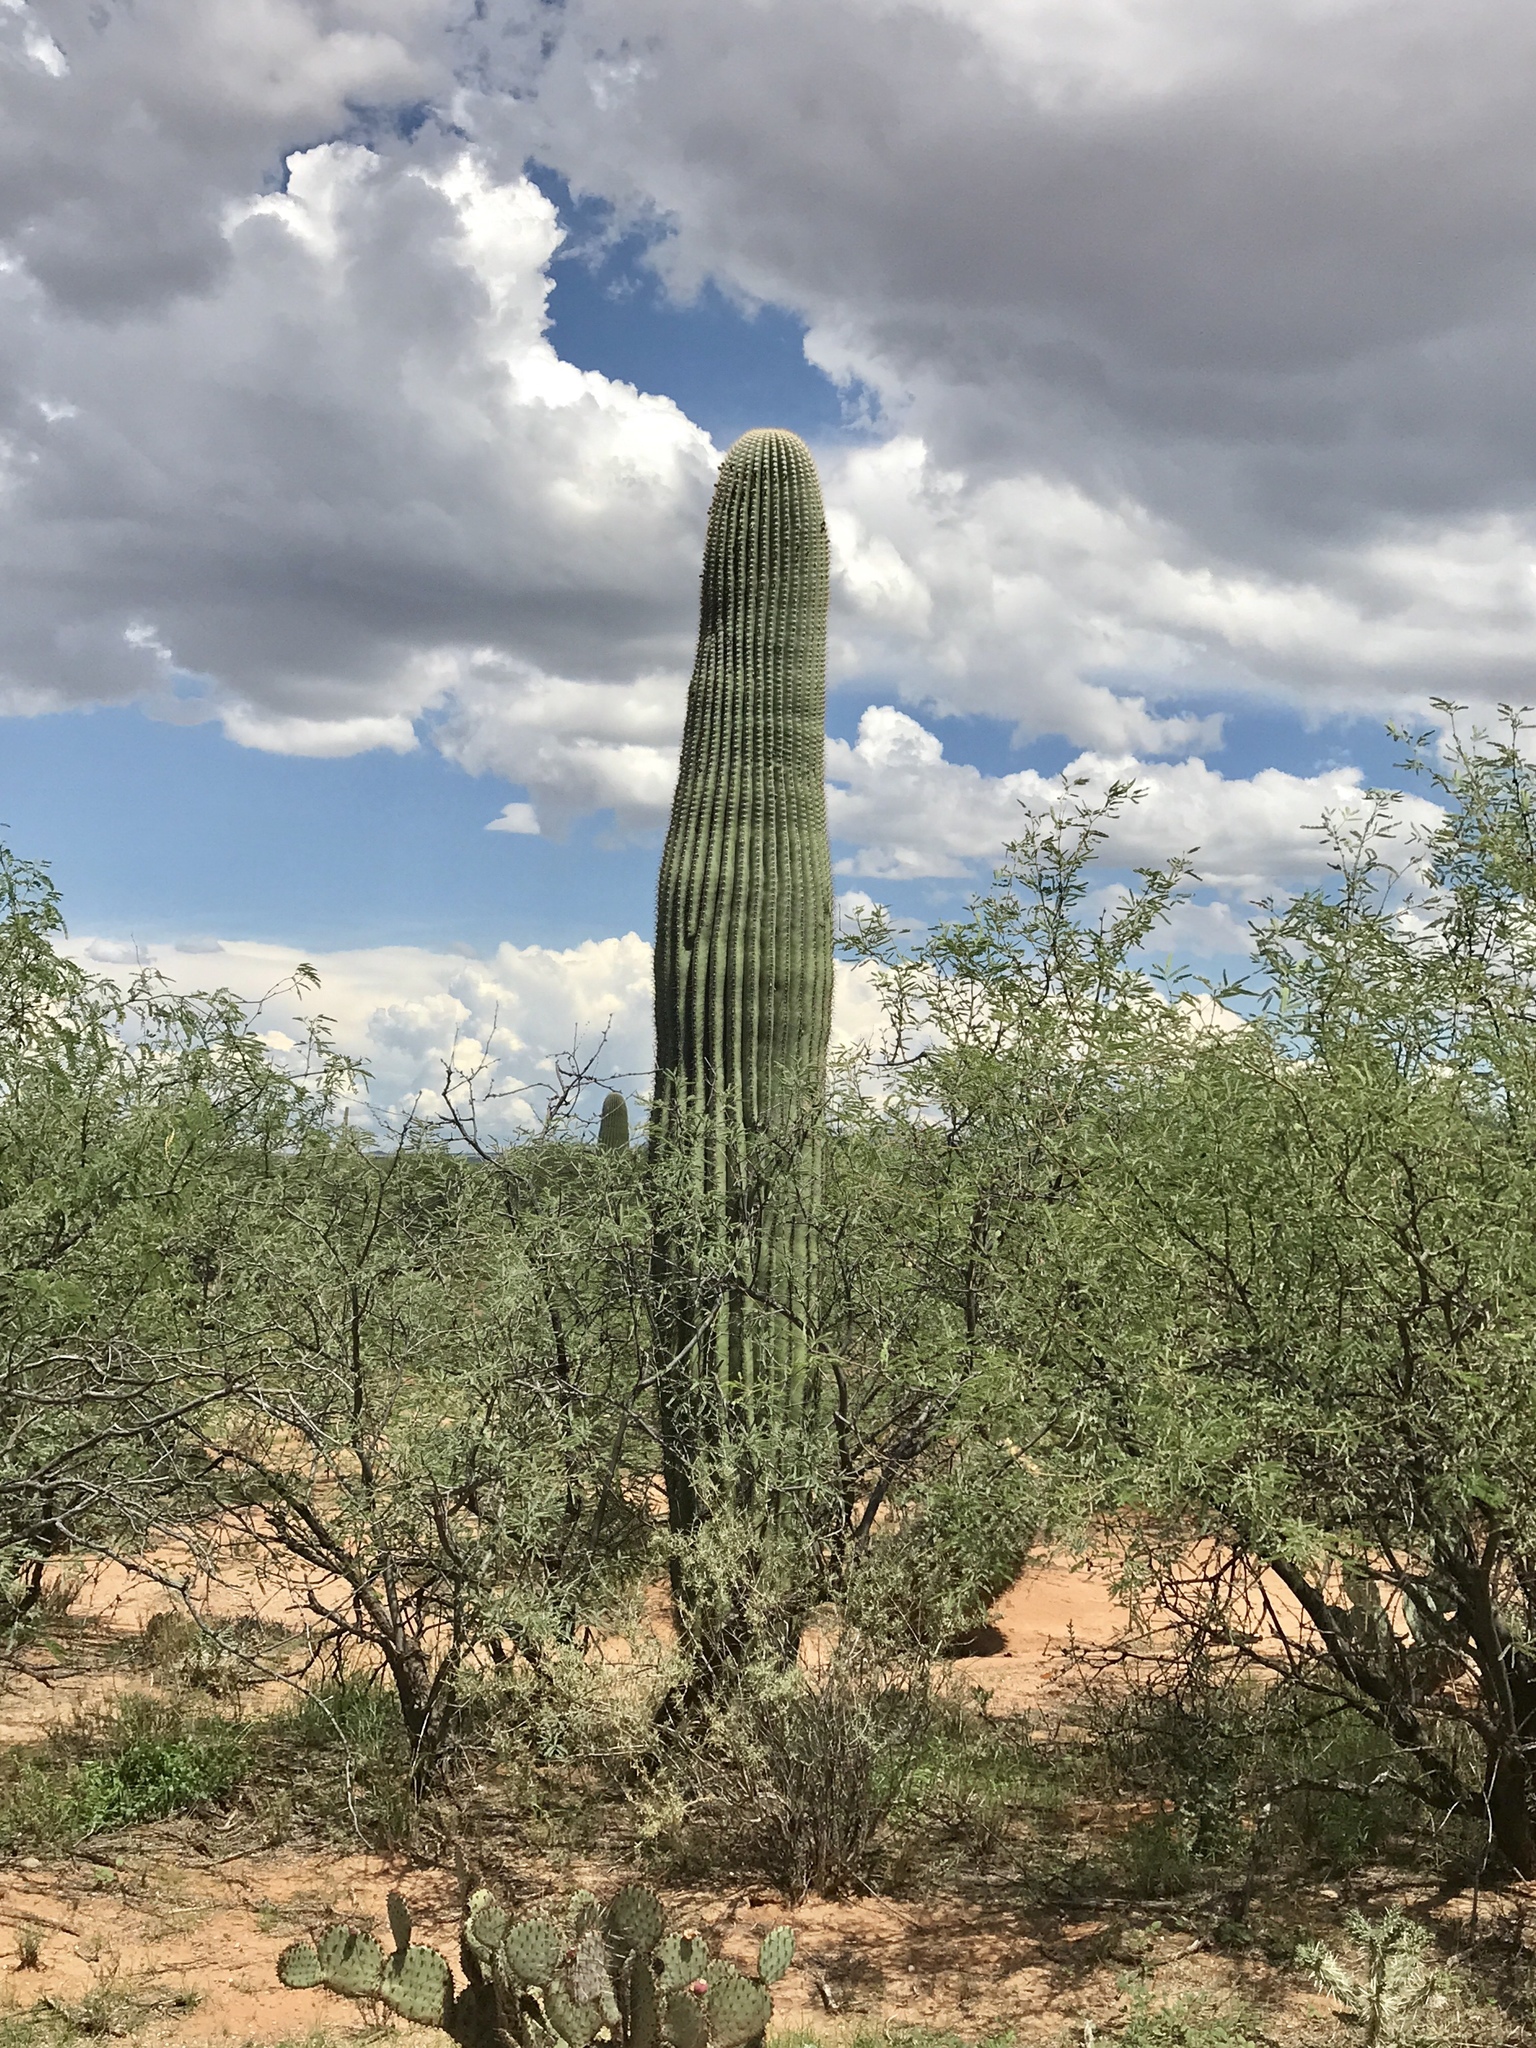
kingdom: Plantae
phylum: Tracheophyta
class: Magnoliopsida
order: Caryophyllales
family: Cactaceae
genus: Carnegiea
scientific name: Carnegiea gigantea
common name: Saguaro
